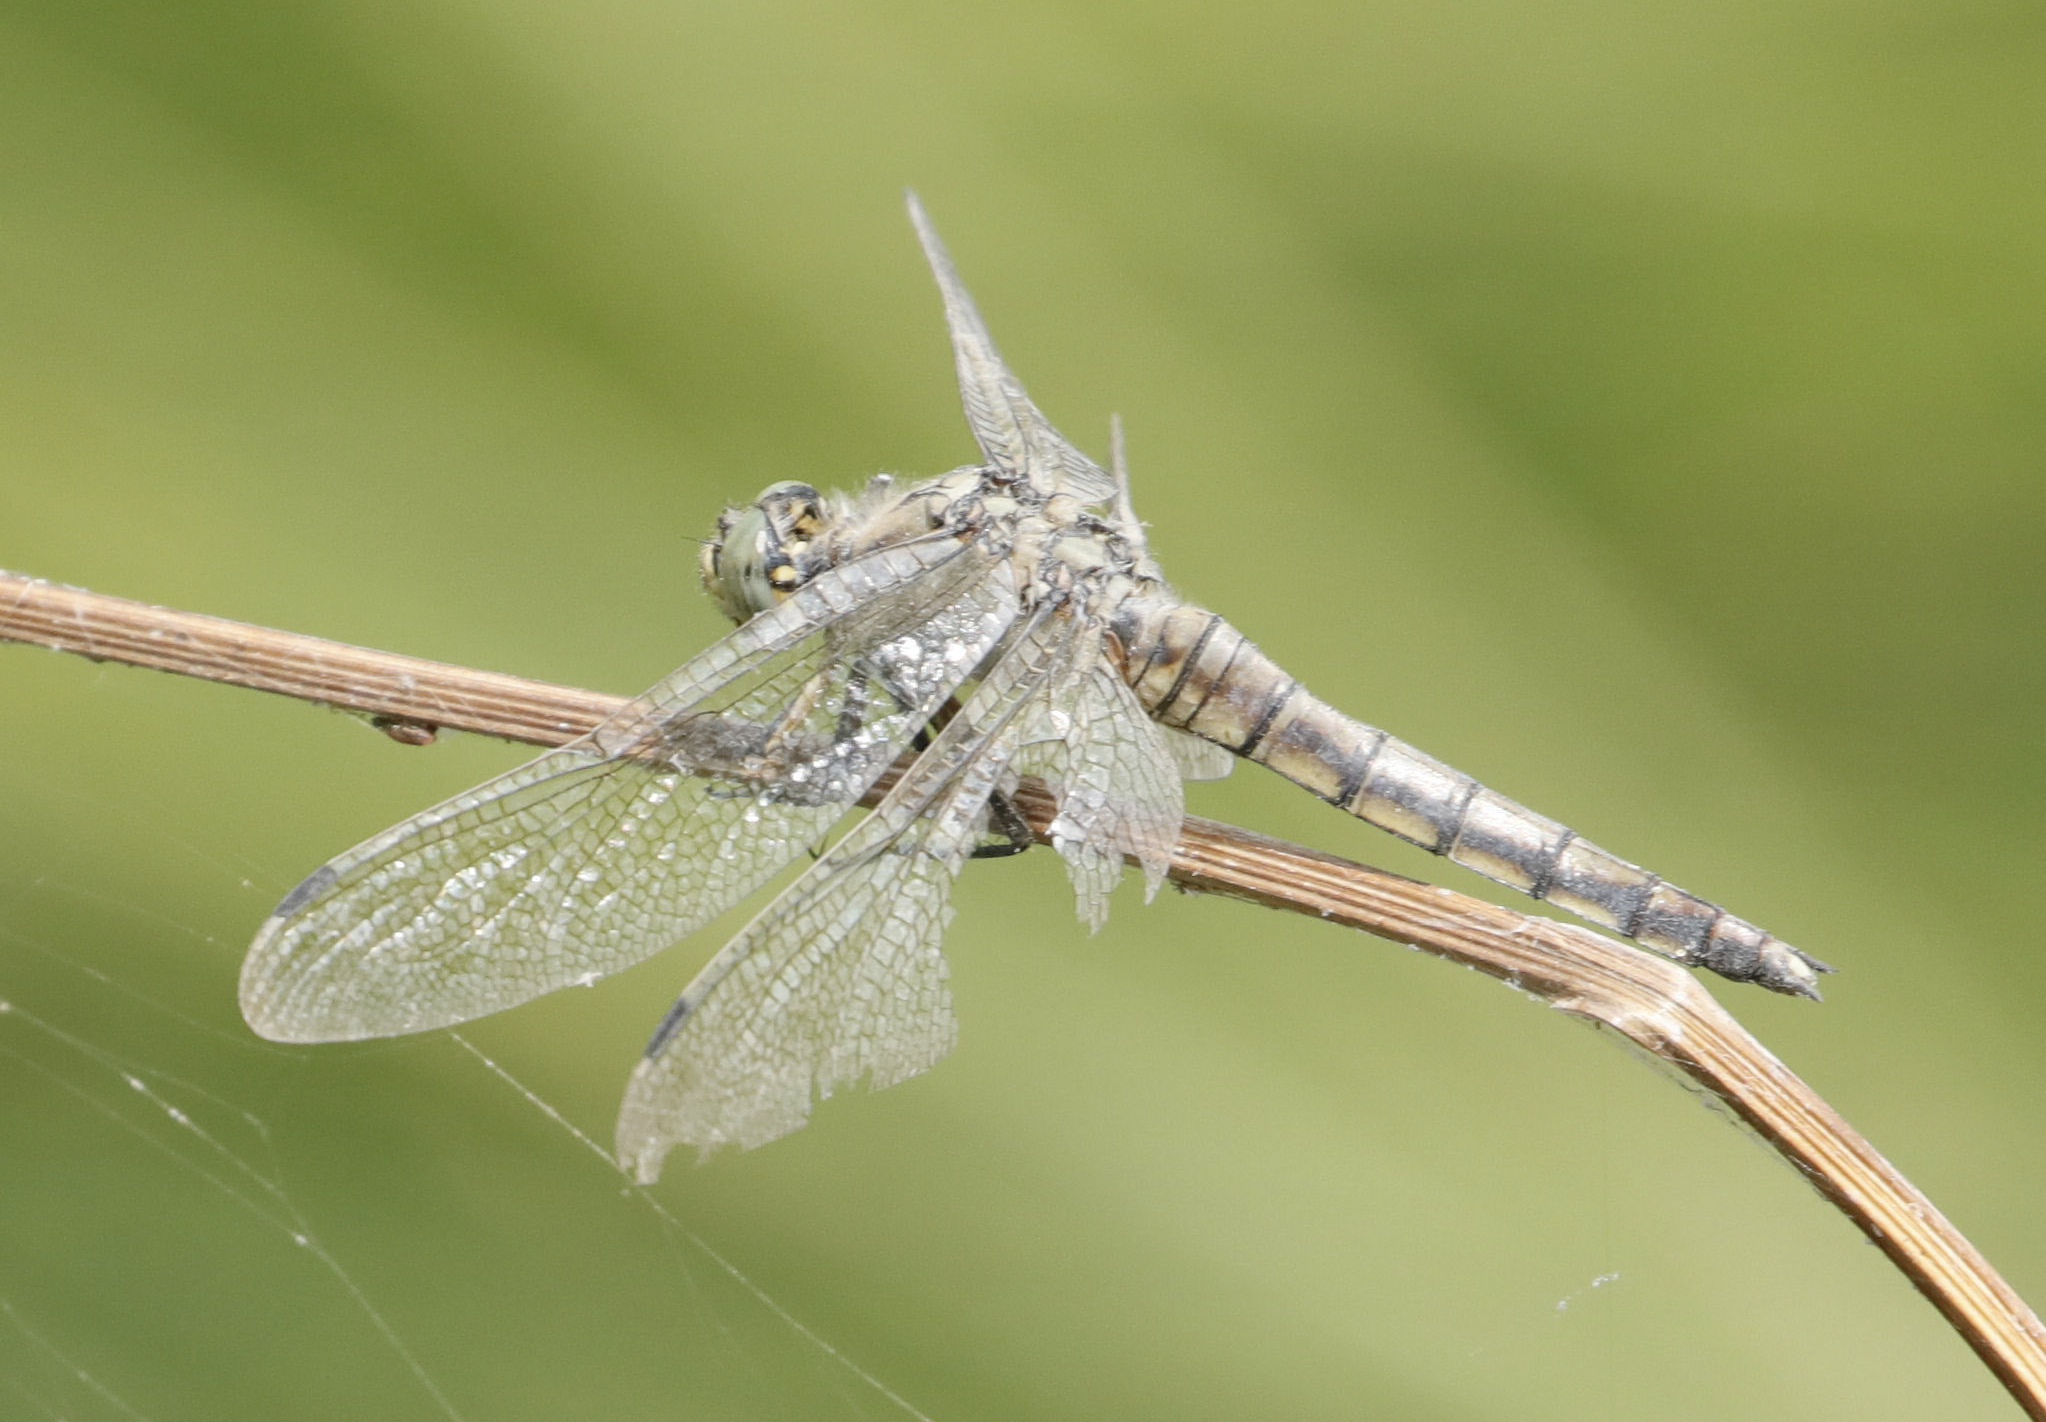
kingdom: Animalia
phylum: Arthropoda
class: Insecta
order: Odonata
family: Libellulidae
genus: Orthetrum
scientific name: Orthetrum cancellatum
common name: Black-tailed skimmer
